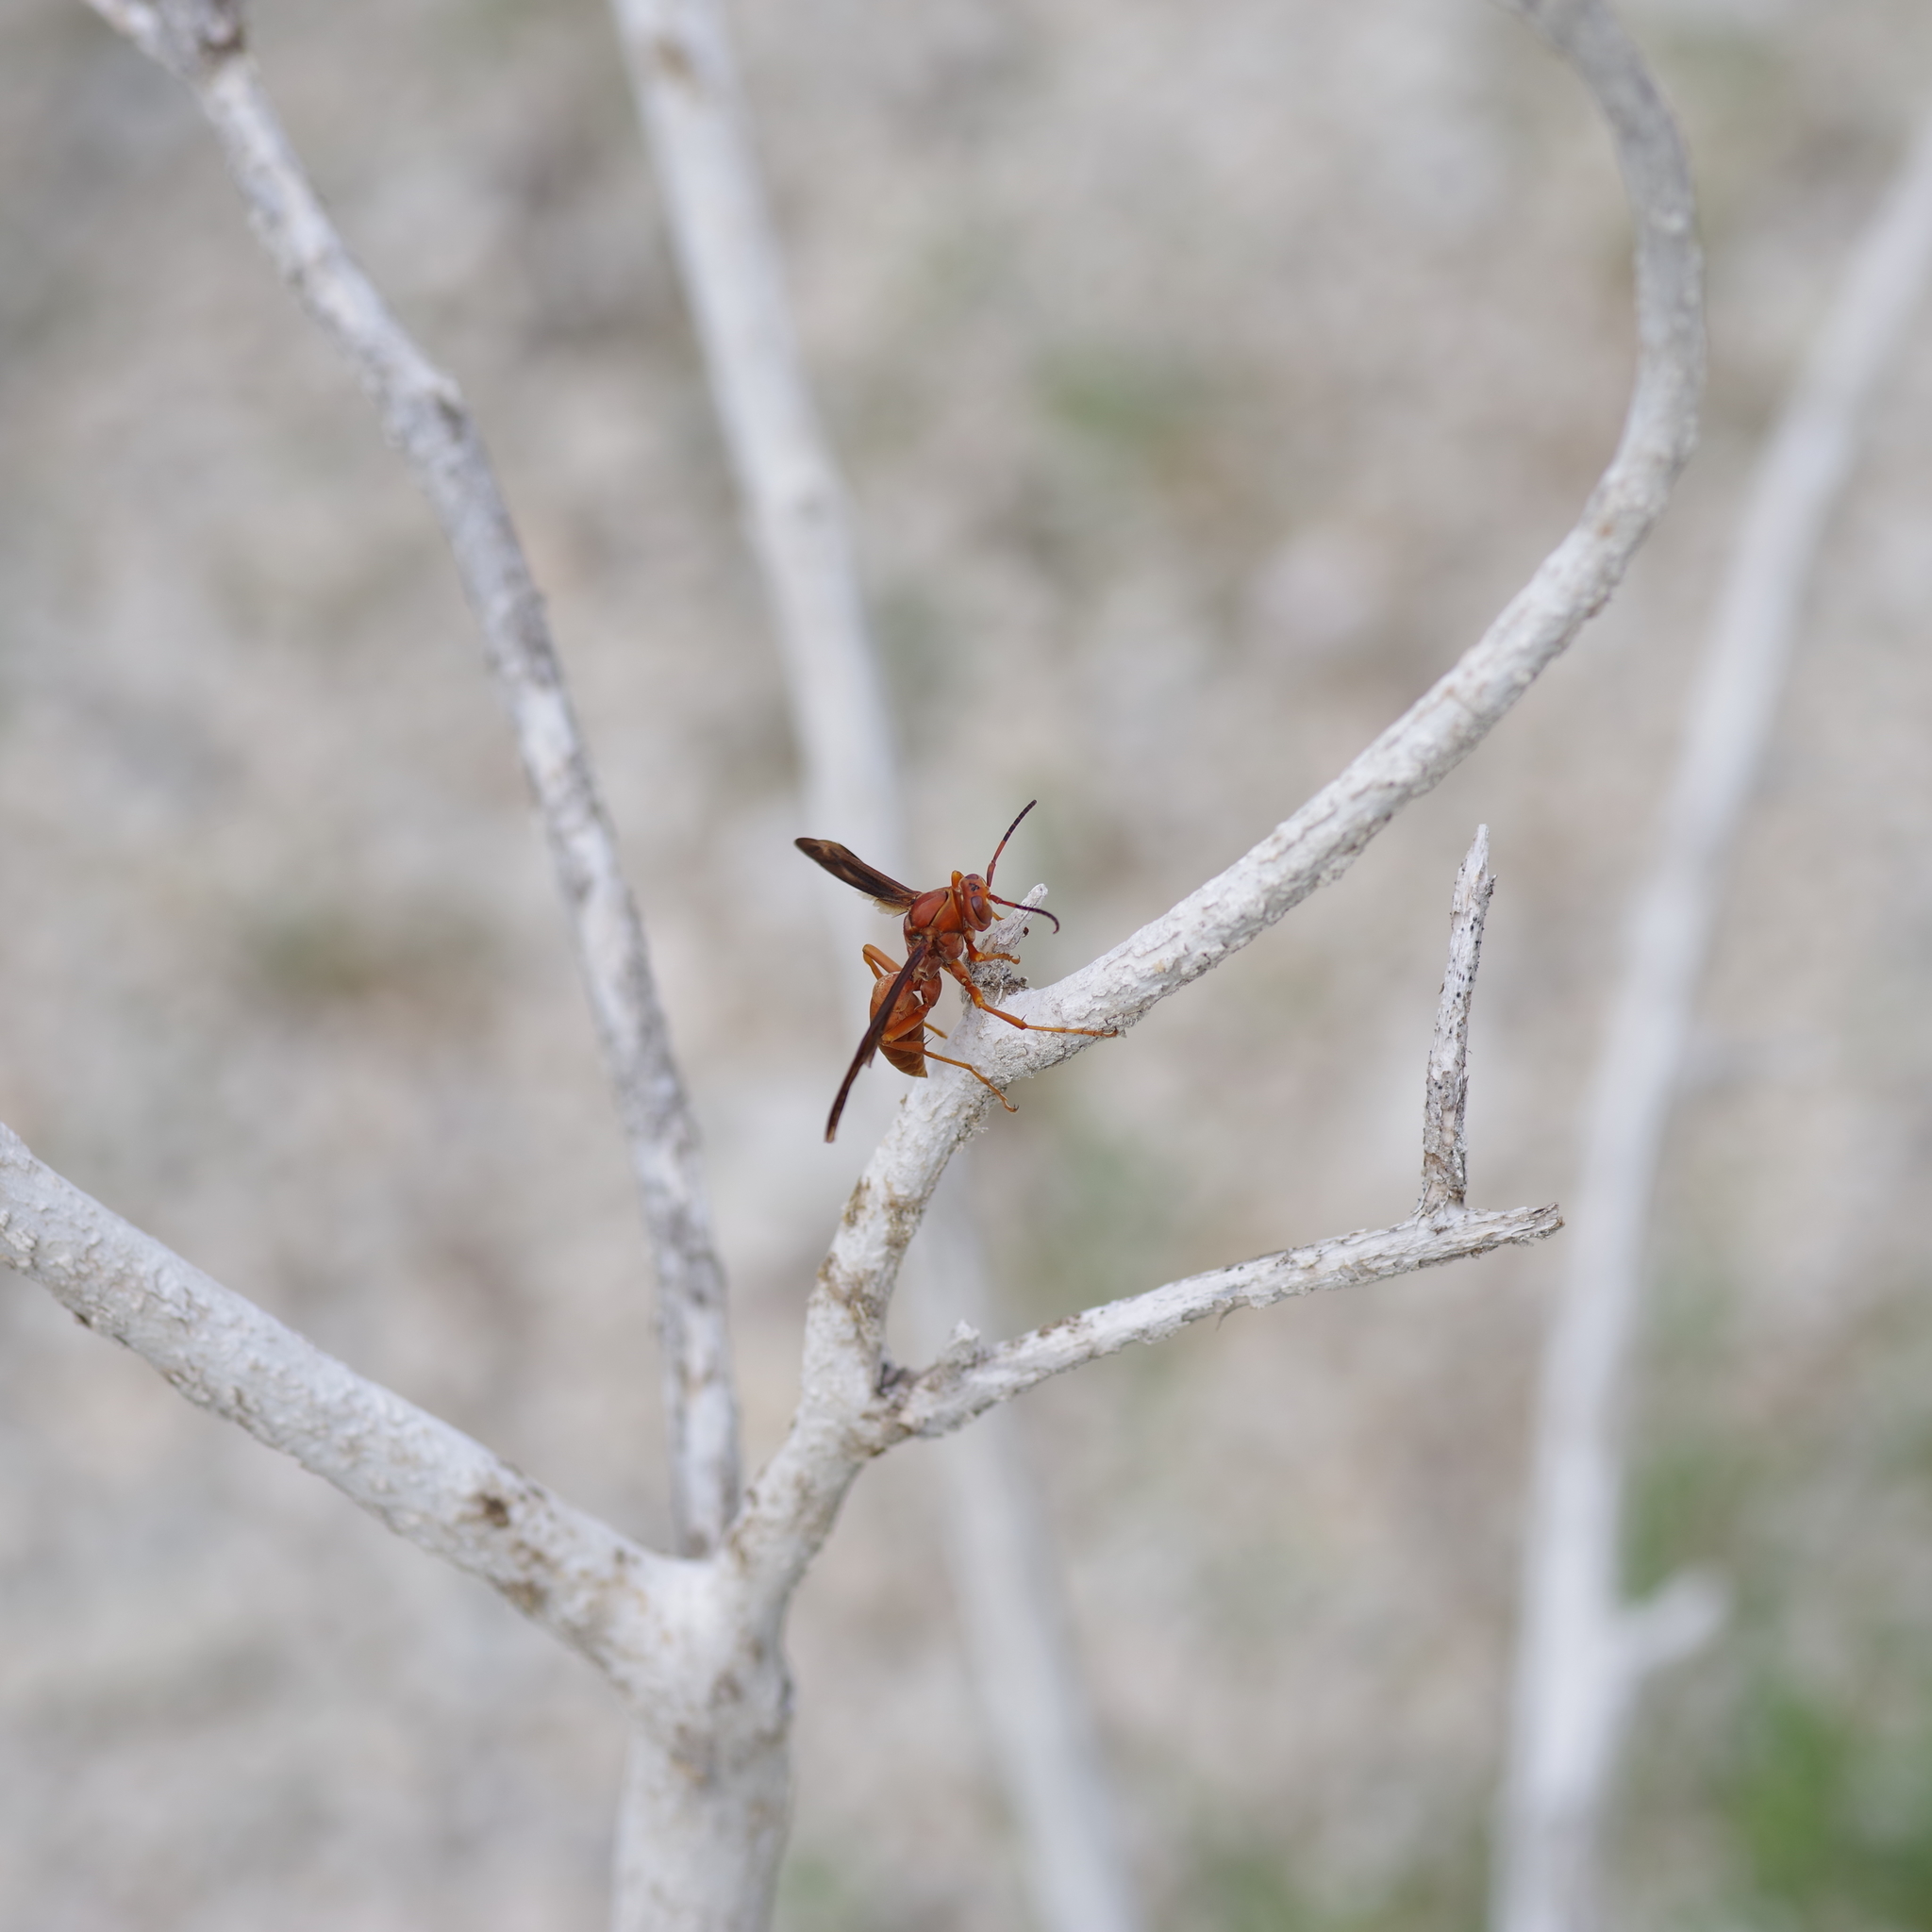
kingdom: Animalia
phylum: Arthropoda
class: Insecta
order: Hymenoptera
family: Vespidae
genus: Fuscopolistes
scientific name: Fuscopolistes
